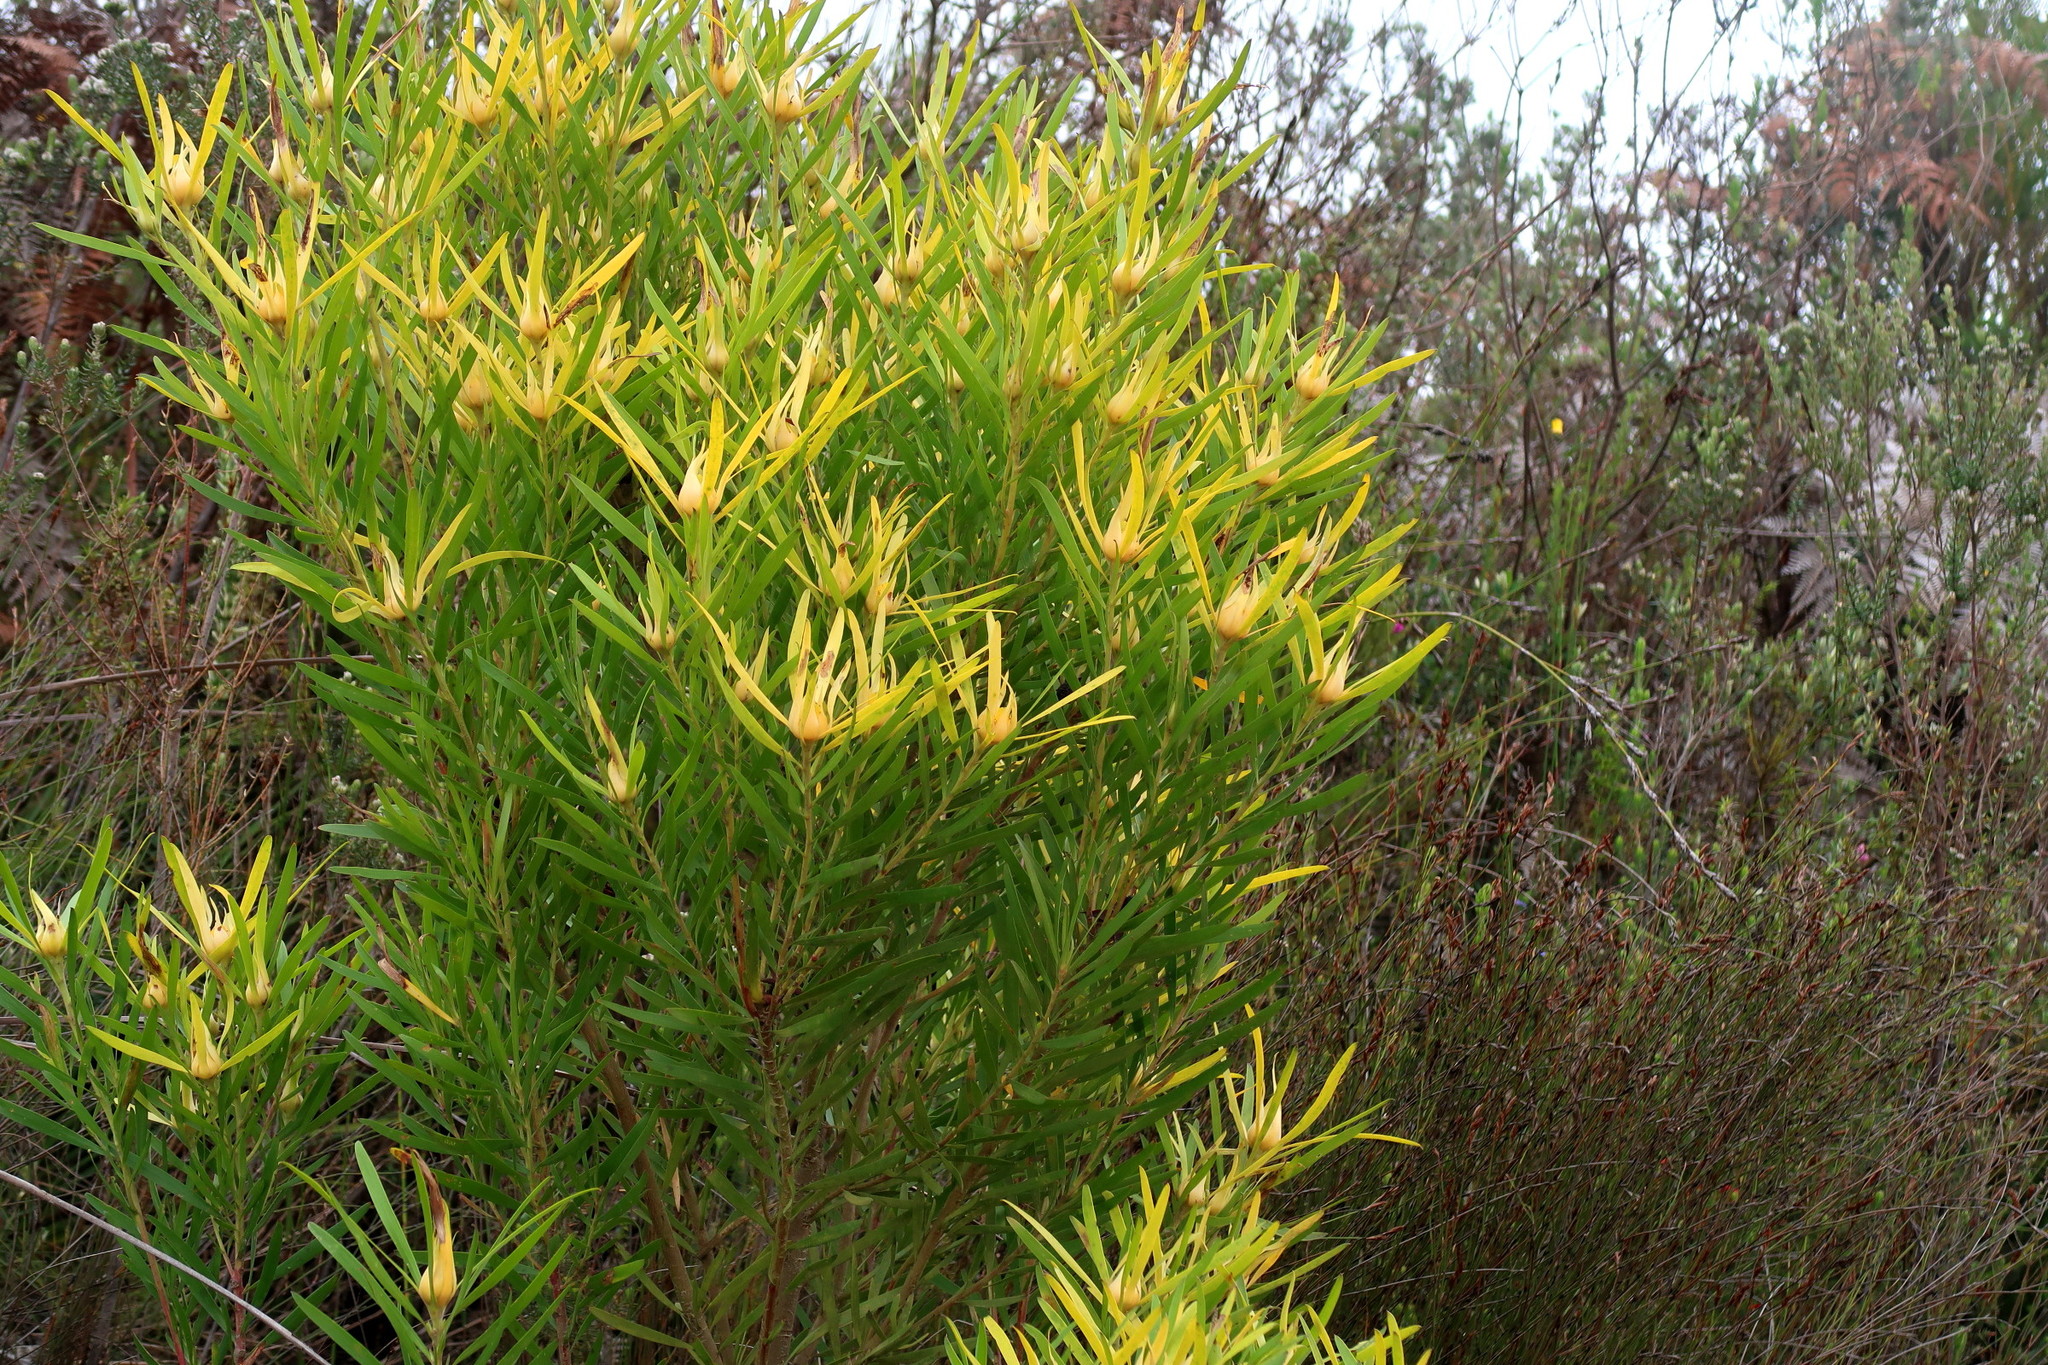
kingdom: Plantae
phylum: Tracheophyta
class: Magnoliopsida
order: Proteales
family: Proteaceae
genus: Leucadendron
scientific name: Leucadendron eucalyptifolium
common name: Gum-leaved conebush
